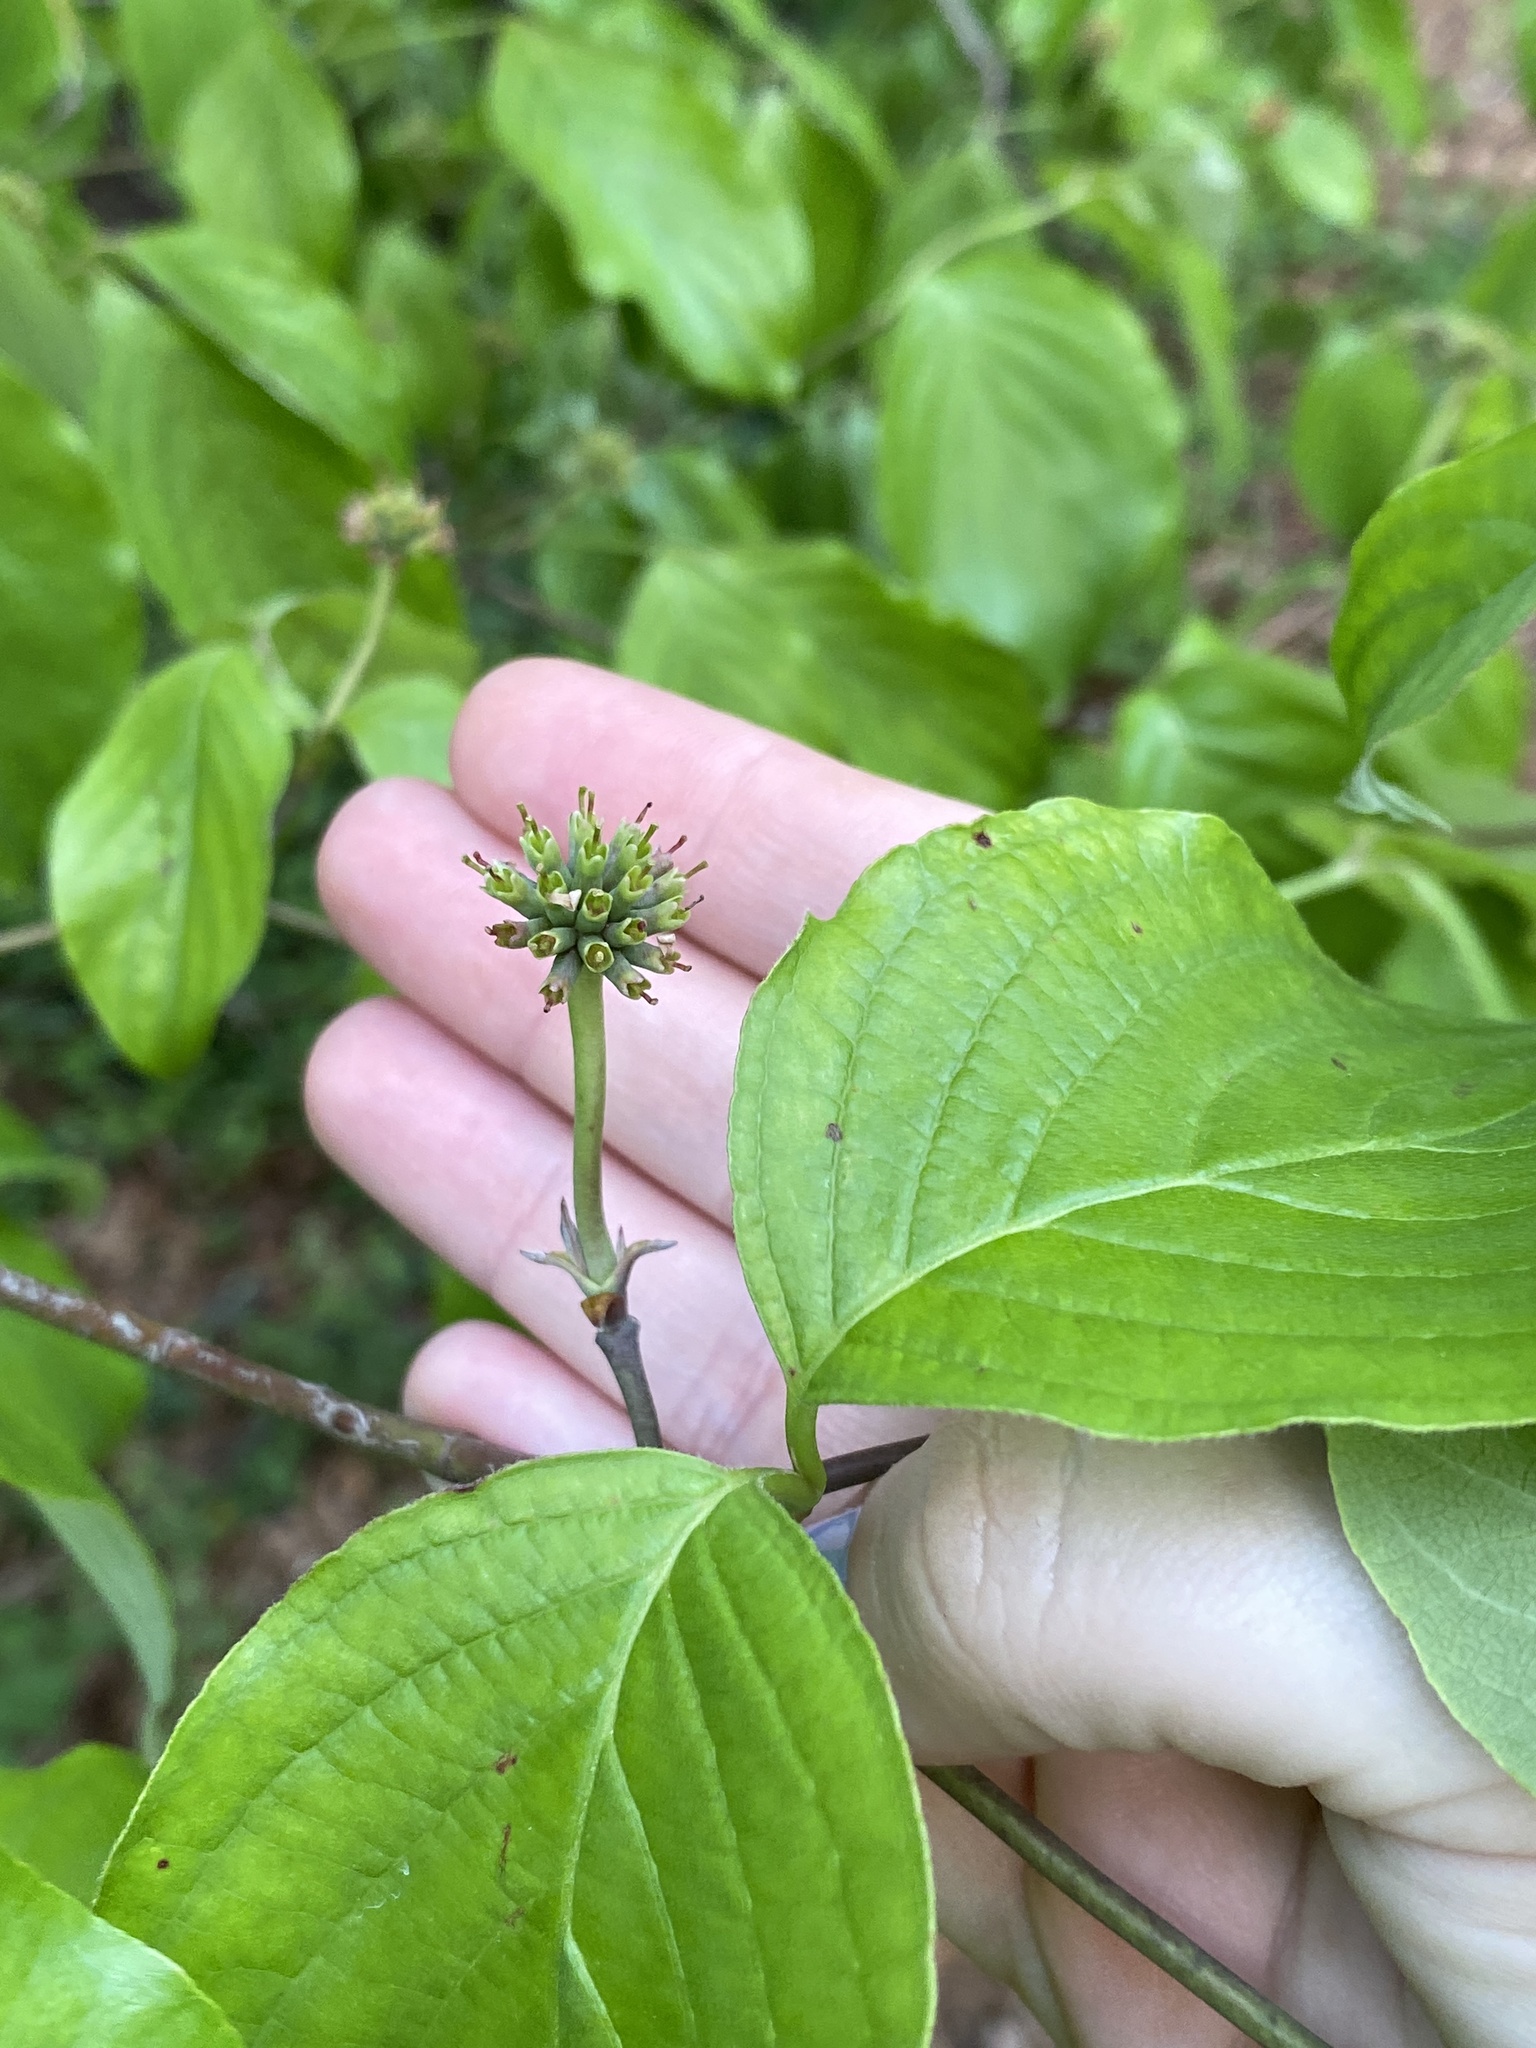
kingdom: Plantae
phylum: Tracheophyta
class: Magnoliopsida
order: Cornales
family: Cornaceae
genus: Cornus
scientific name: Cornus florida
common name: Flowering dogwood
